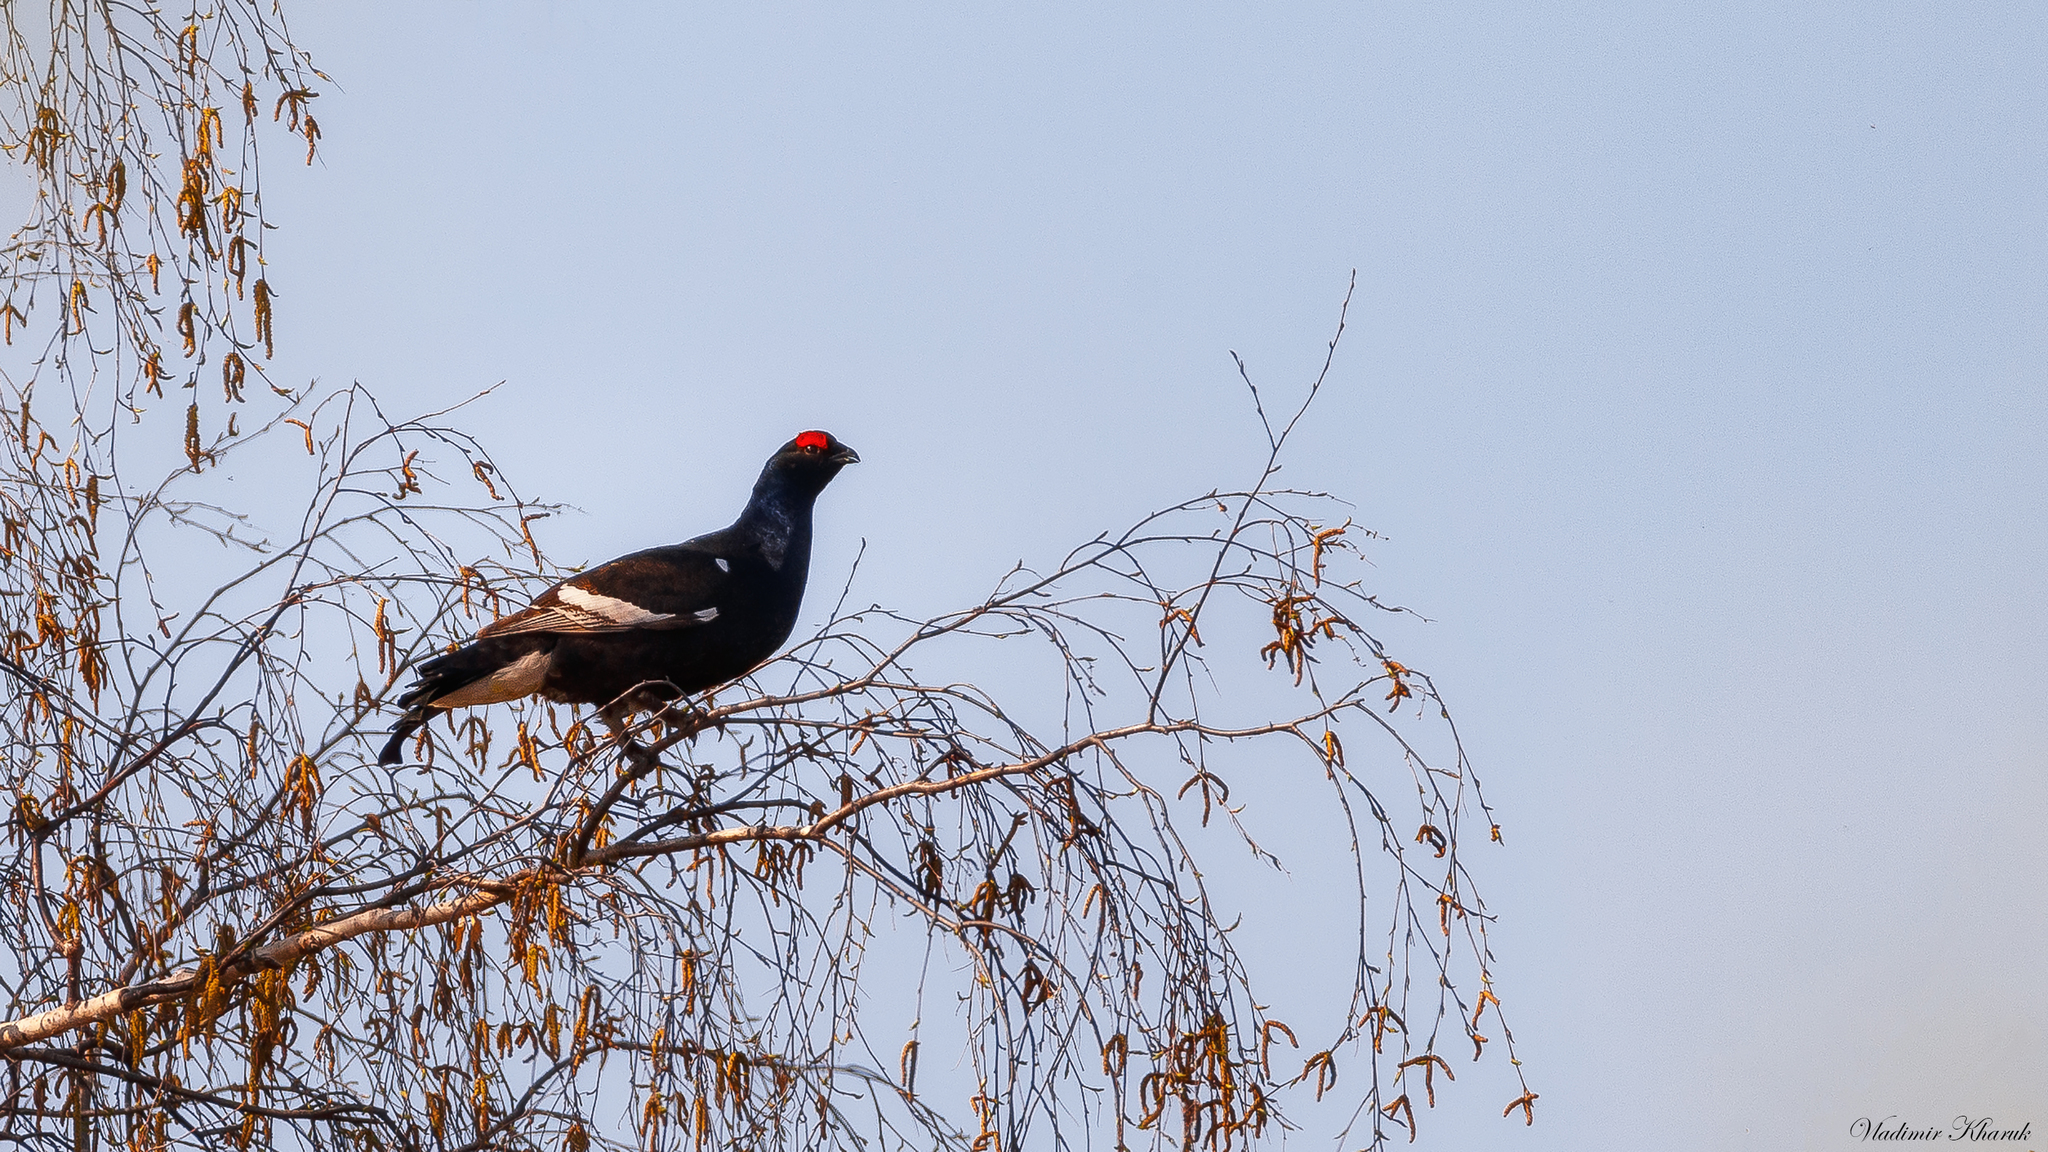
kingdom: Animalia
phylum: Chordata
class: Aves
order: Galliformes
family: Phasianidae
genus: Lyrurus
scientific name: Lyrurus tetrix
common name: Black grouse
